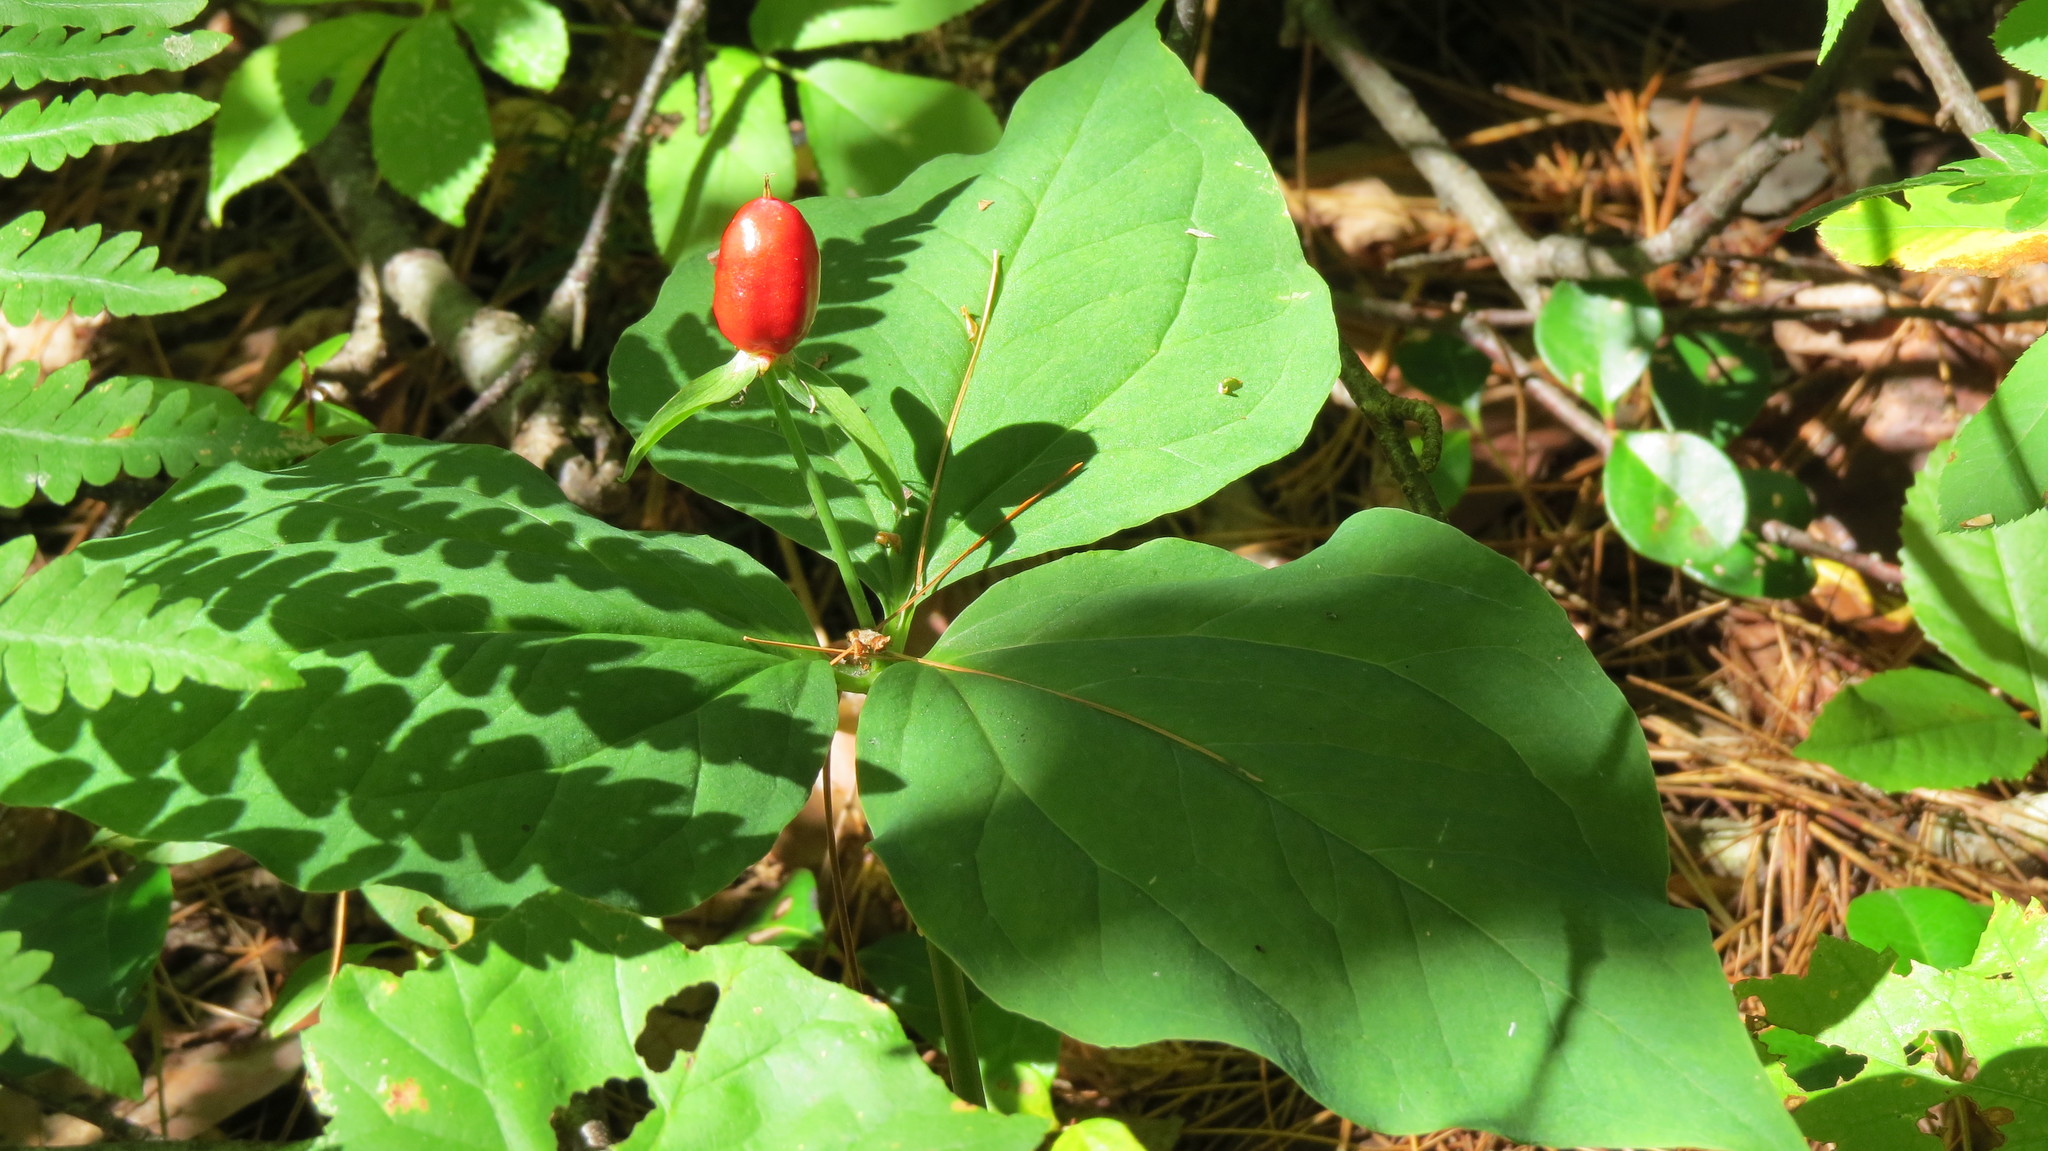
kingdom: Plantae
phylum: Tracheophyta
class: Liliopsida
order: Liliales
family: Melanthiaceae
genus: Trillium
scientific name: Trillium undulatum
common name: Paint trillium
